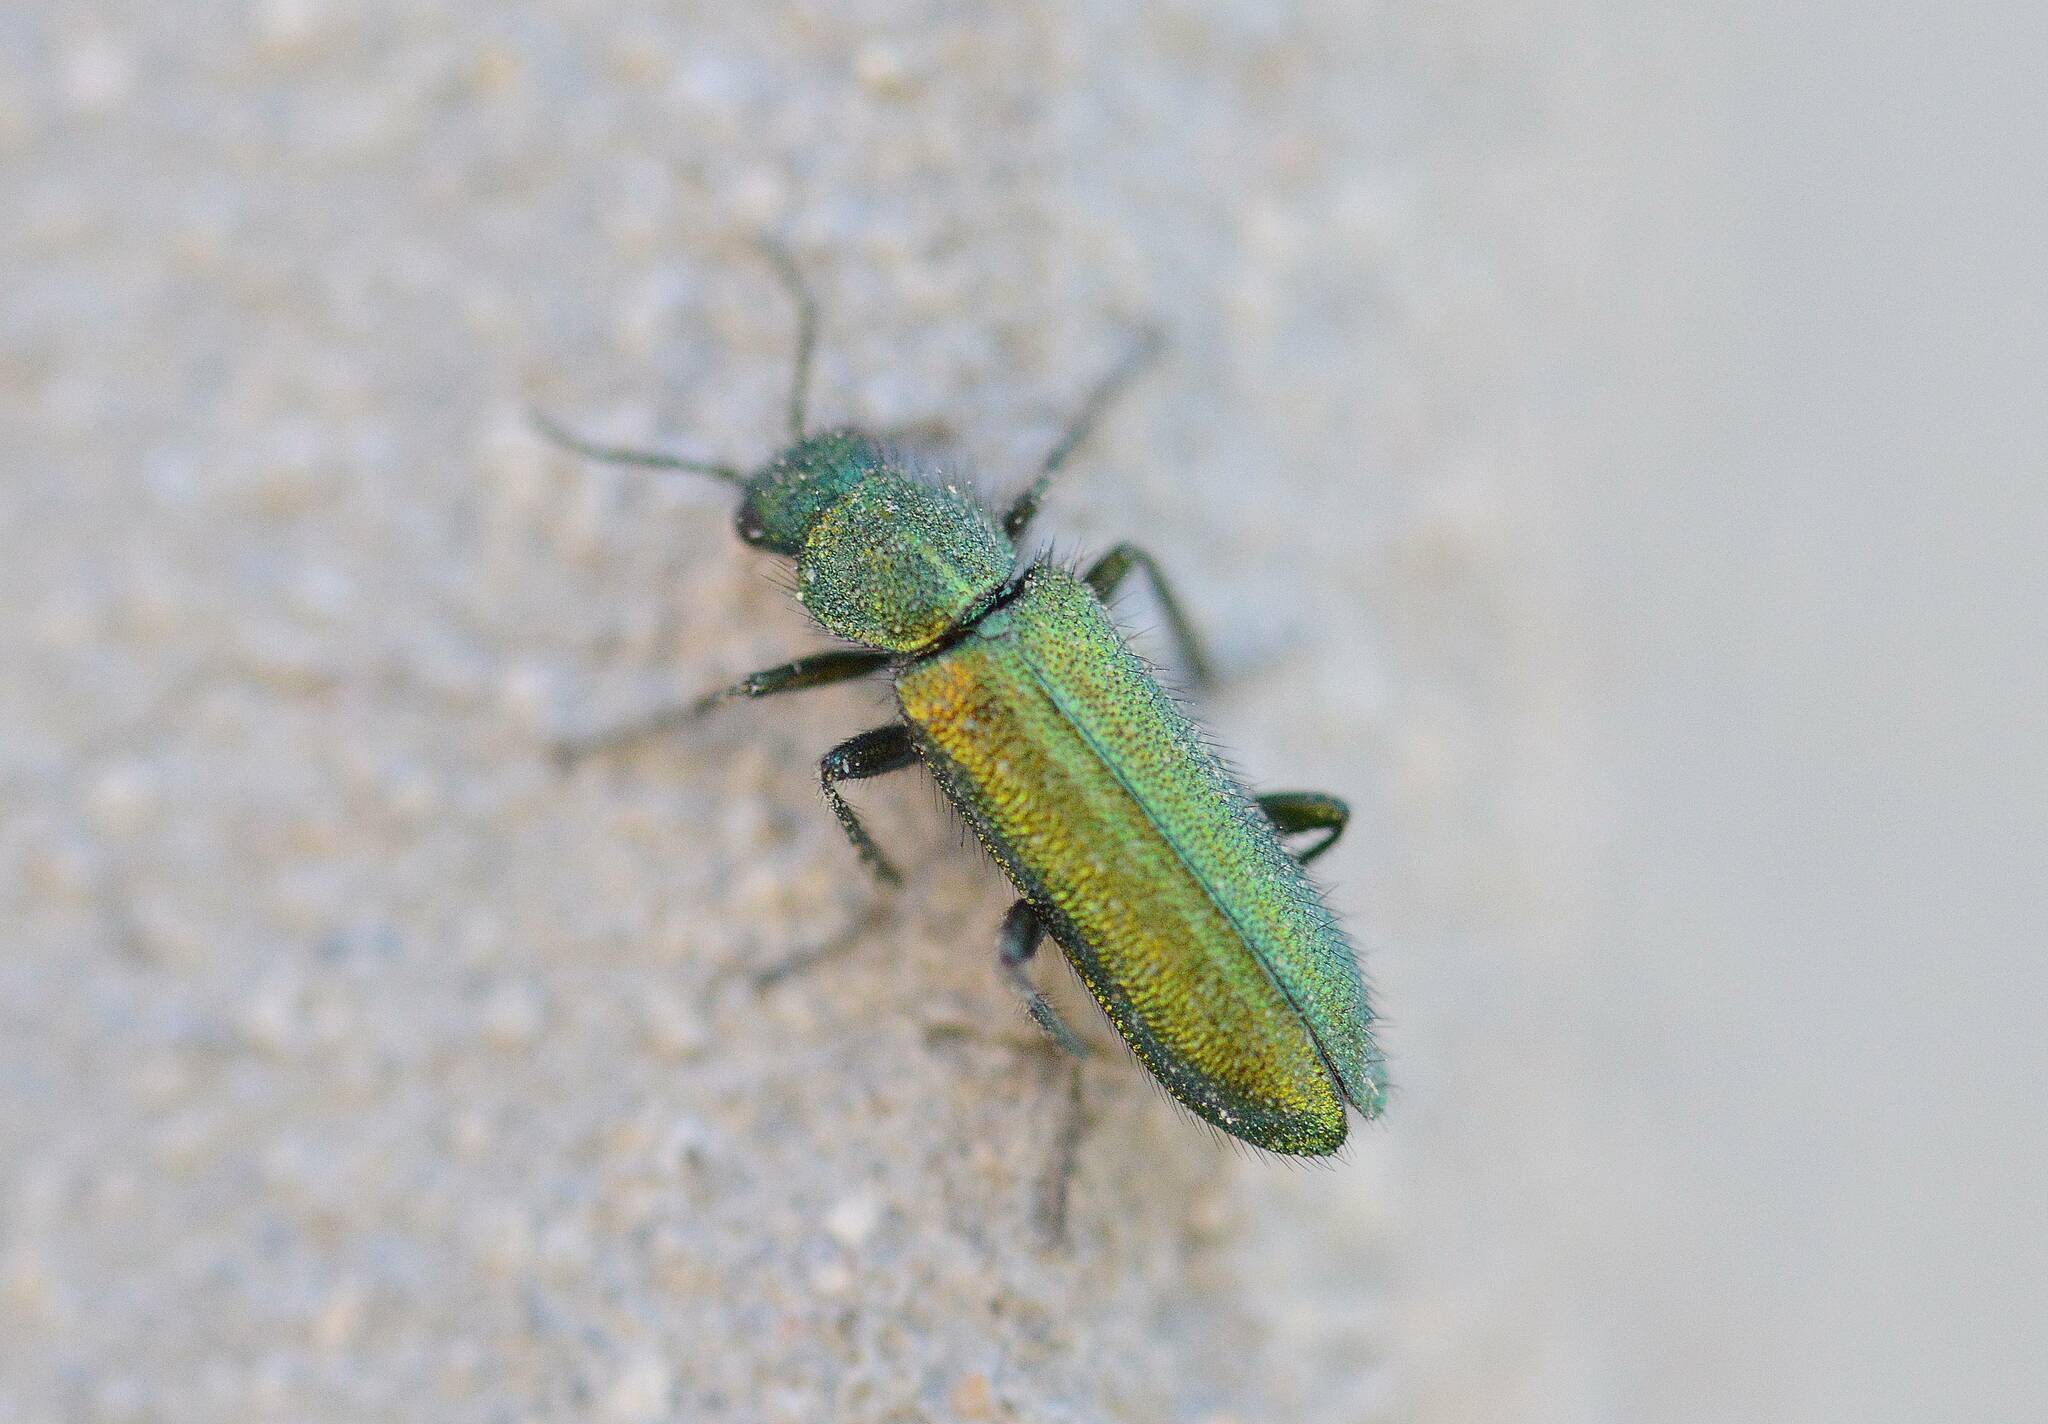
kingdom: Animalia
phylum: Arthropoda
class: Insecta
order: Coleoptera
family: Dasytidae
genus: Psilothrix
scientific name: Psilothrix viridicoerulea
